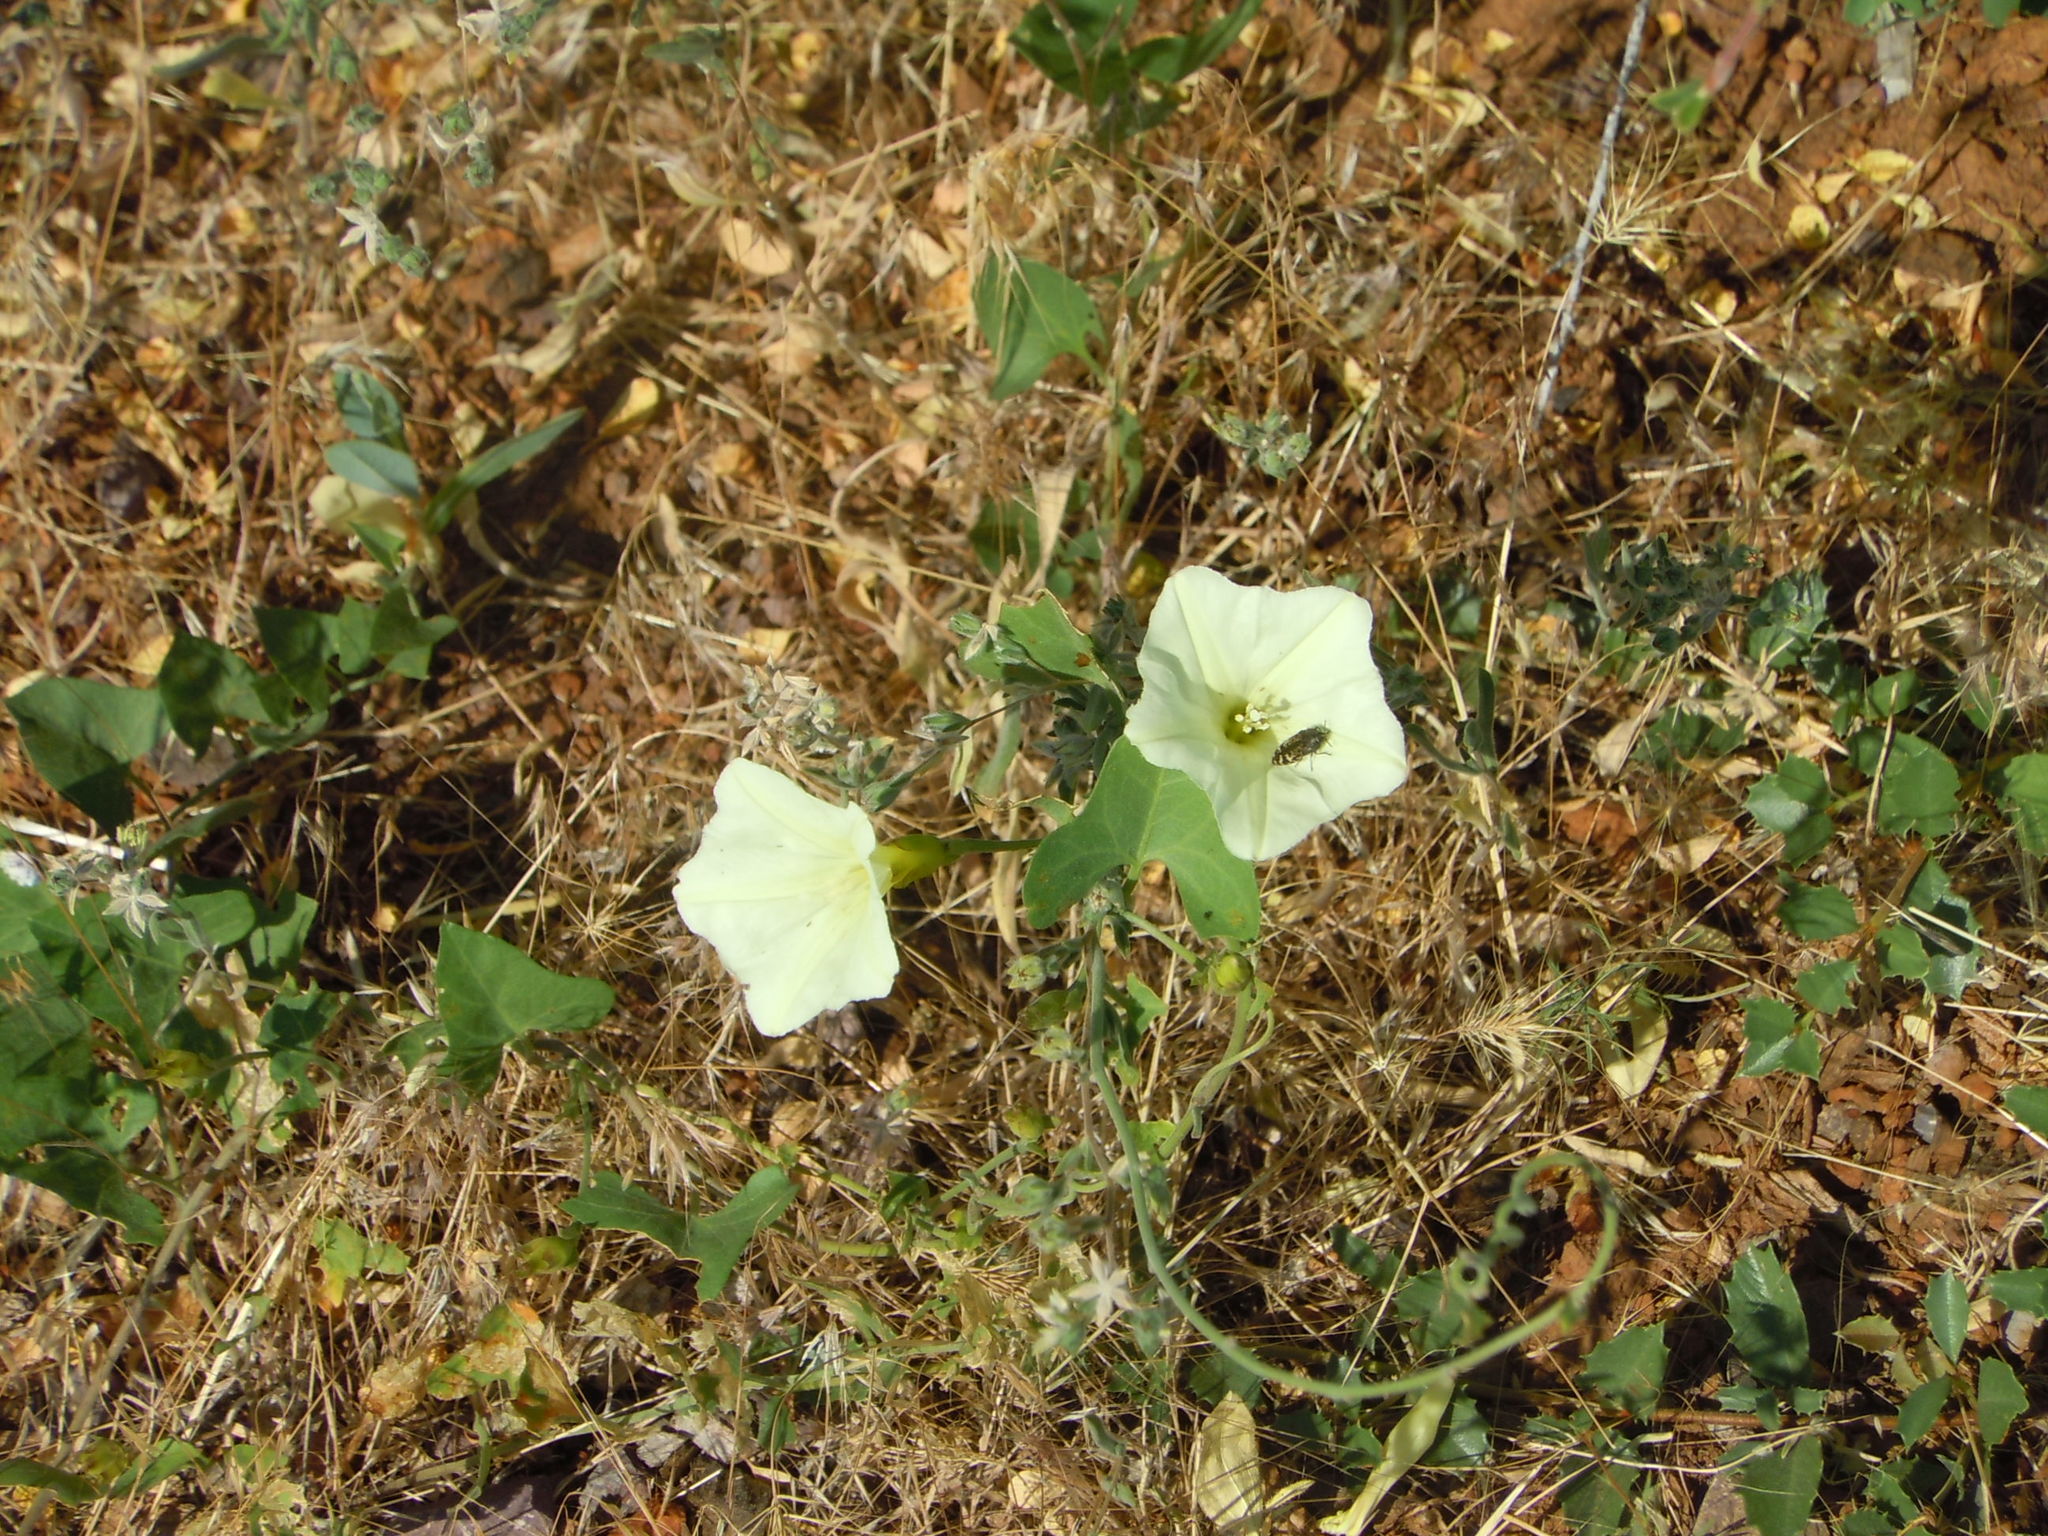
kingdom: Plantae
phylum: Tracheophyta
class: Magnoliopsida
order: Solanales
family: Convolvulaceae
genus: Calystegia
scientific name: Calystegia occidentalis
